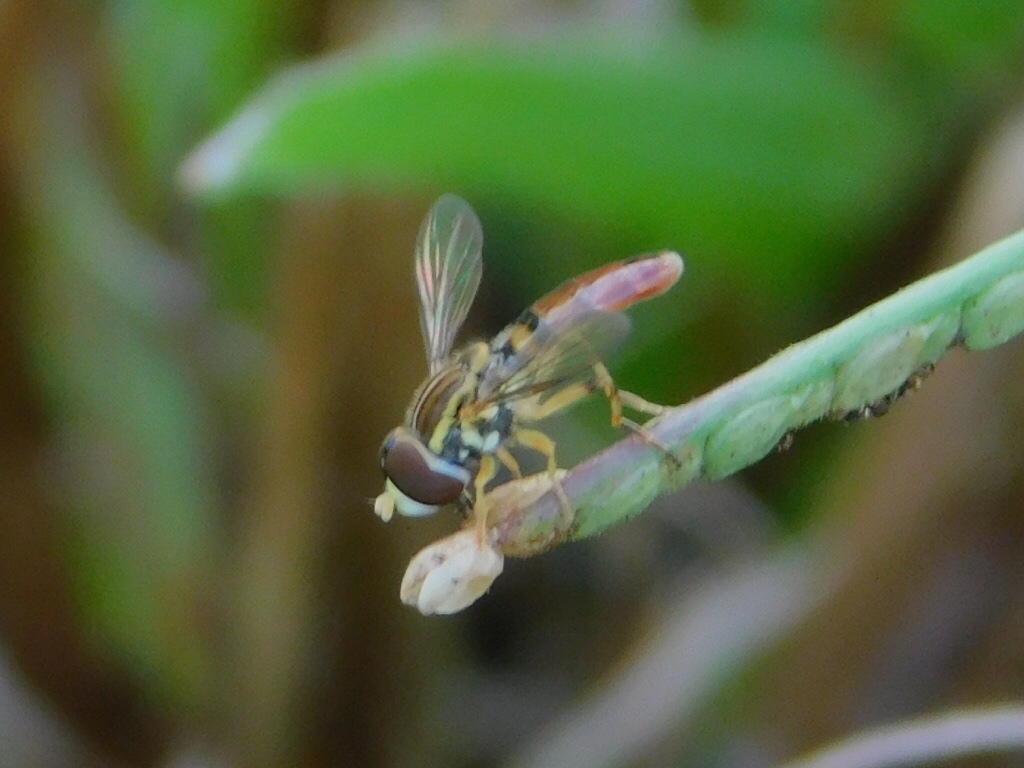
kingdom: Animalia
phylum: Arthropoda
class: Insecta
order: Diptera
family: Syrphidae
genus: Toxomerus
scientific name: Toxomerus floralis
